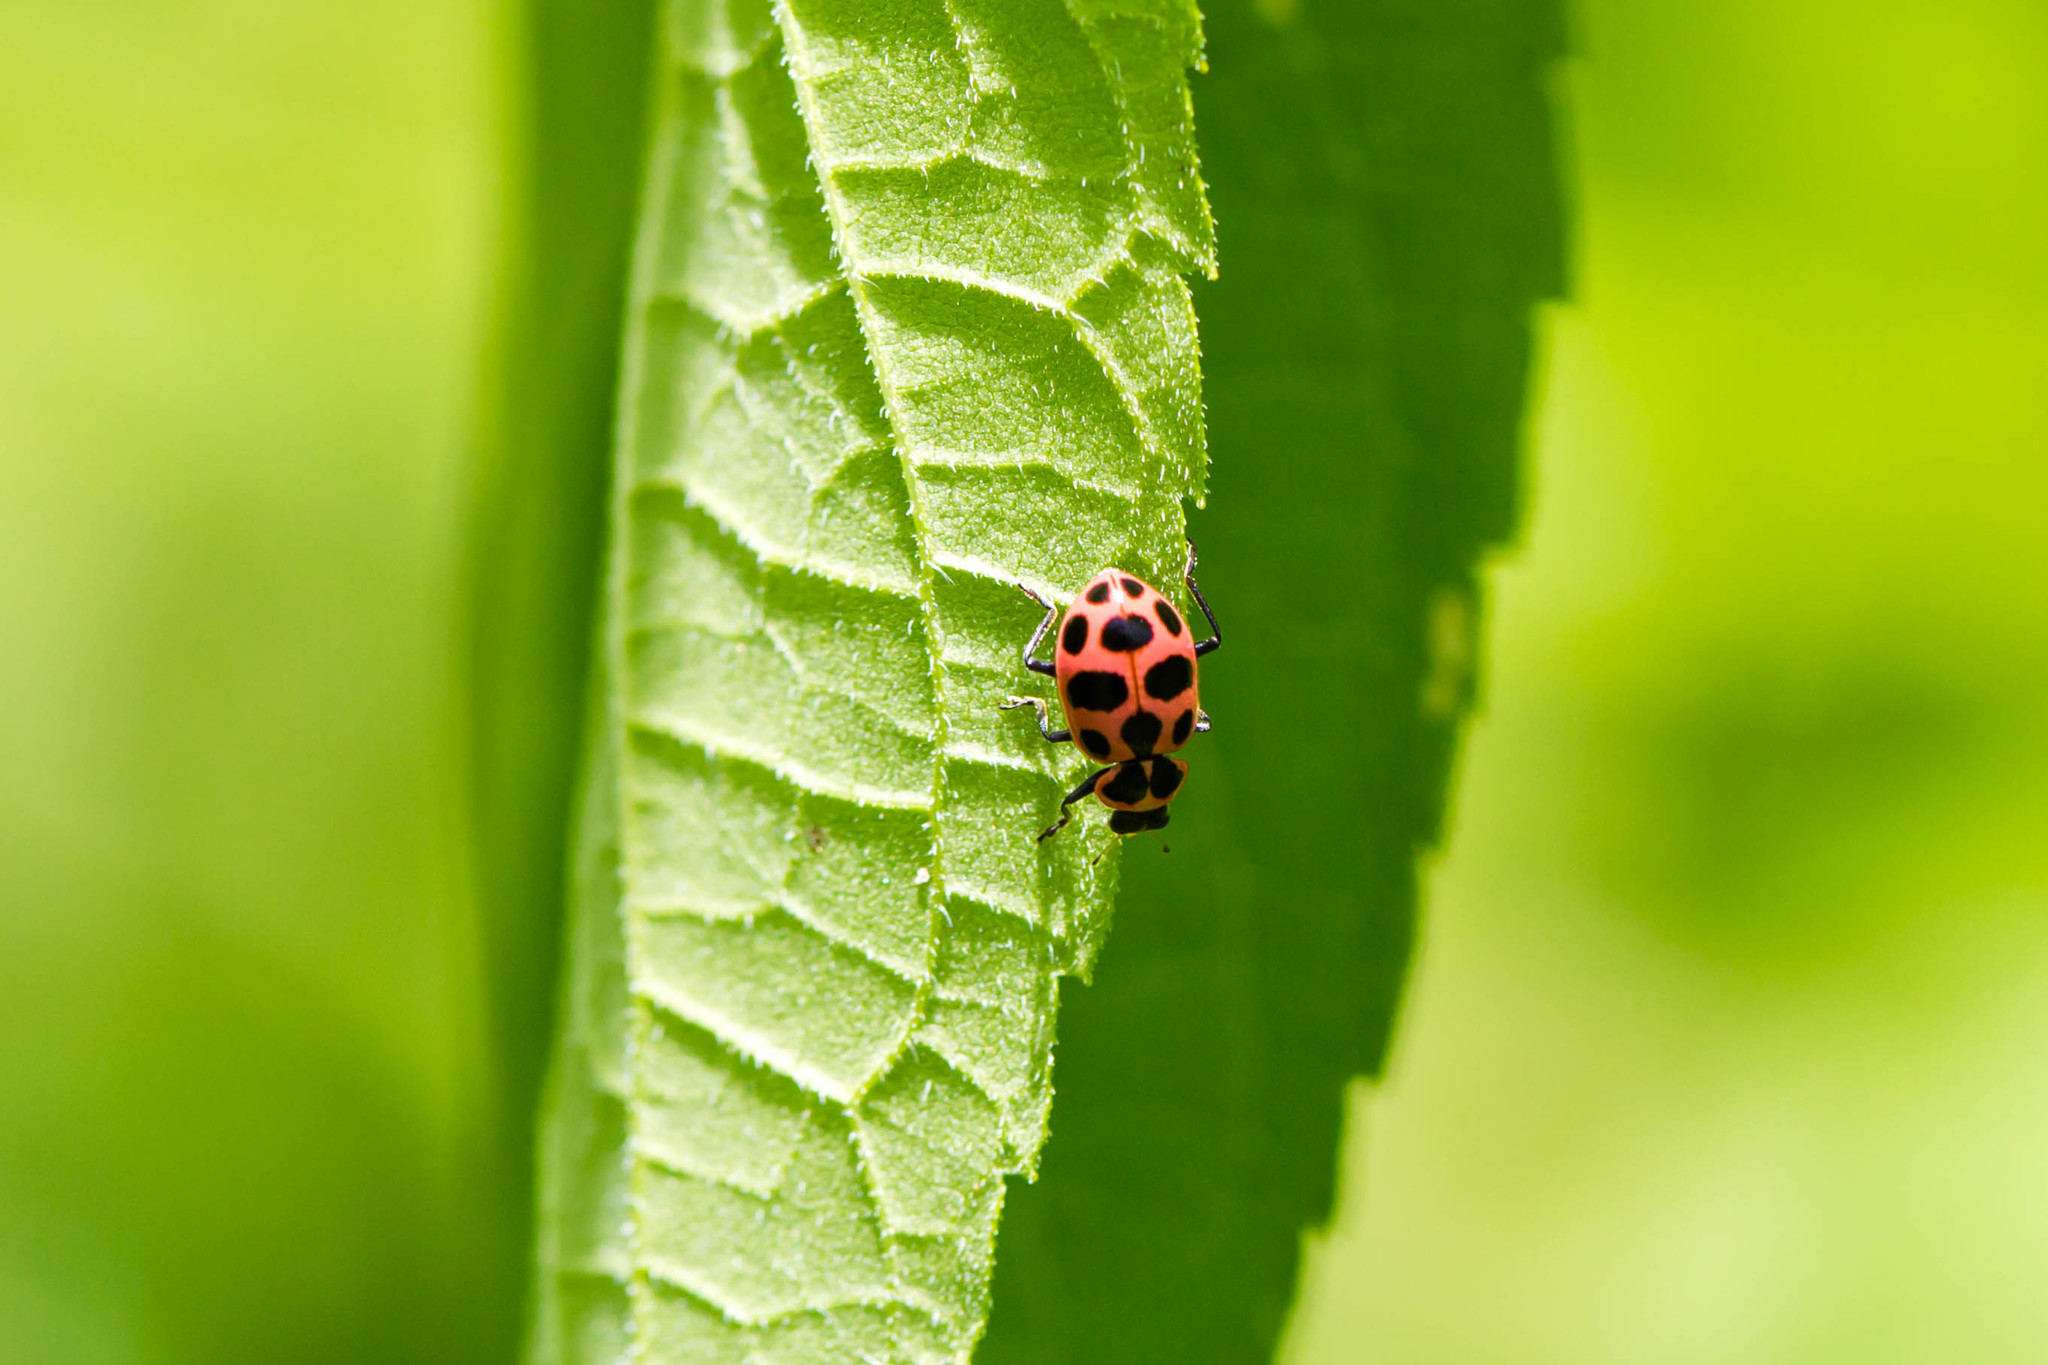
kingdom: Animalia
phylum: Arthropoda
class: Insecta
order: Coleoptera
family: Coccinellidae
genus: Coleomegilla
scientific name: Coleomegilla maculata
